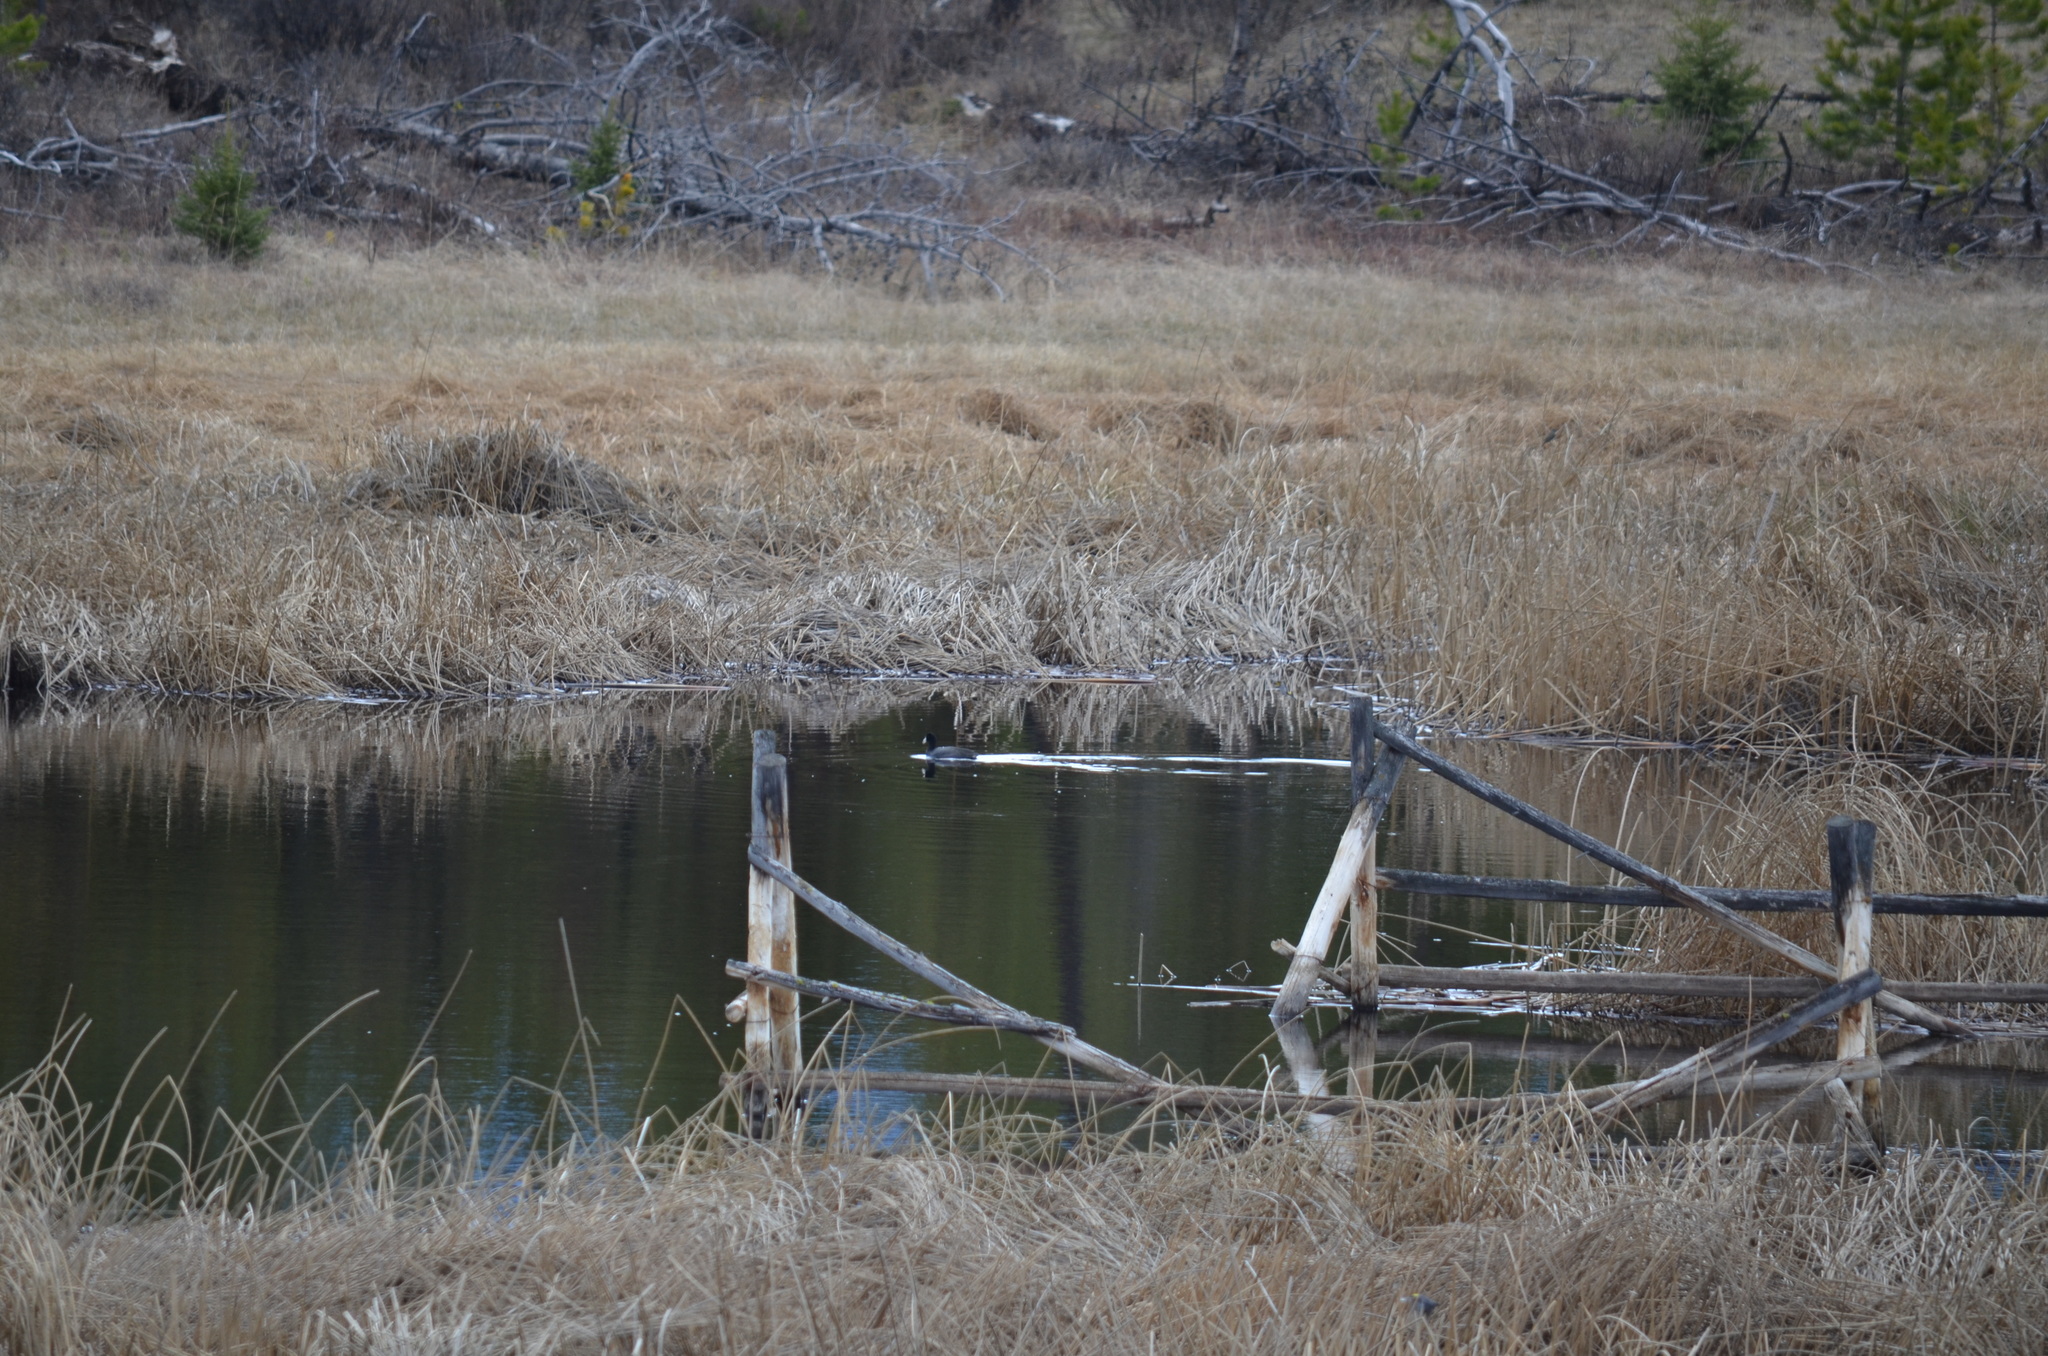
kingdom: Animalia
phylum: Chordata
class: Aves
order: Gruiformes
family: Rallidae
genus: Fulica
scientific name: Fulica americana
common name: American coot
